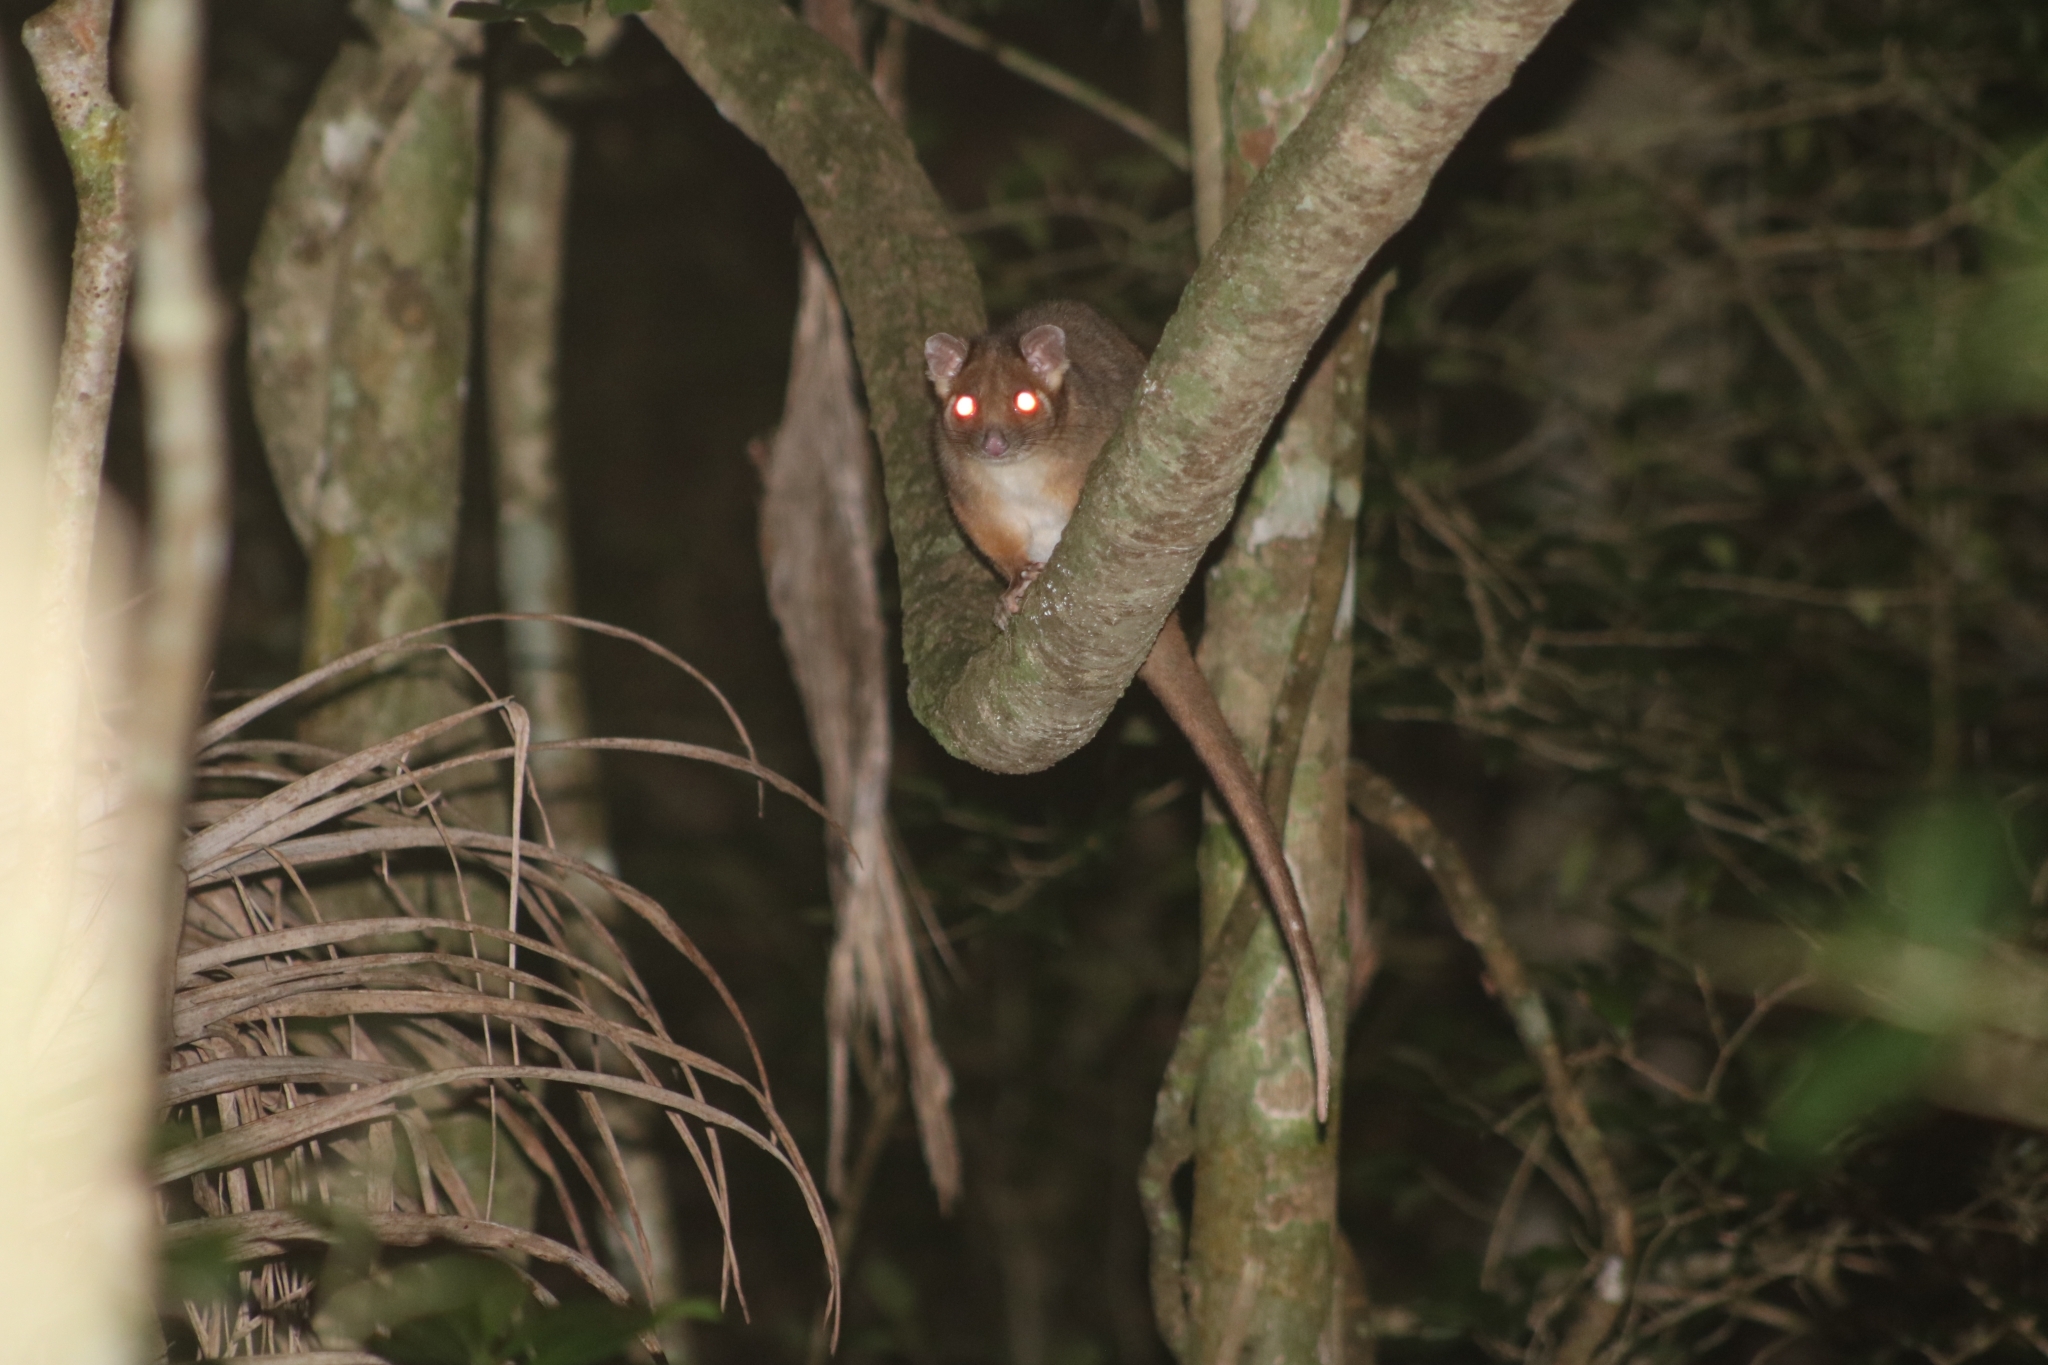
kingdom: Animalia
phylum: Chordata
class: Mammalia
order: Diprotodontia
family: Pseudocheiridae
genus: Pseudocheirus
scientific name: Pseudocheirus peregrinus
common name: Common ringtail possum
